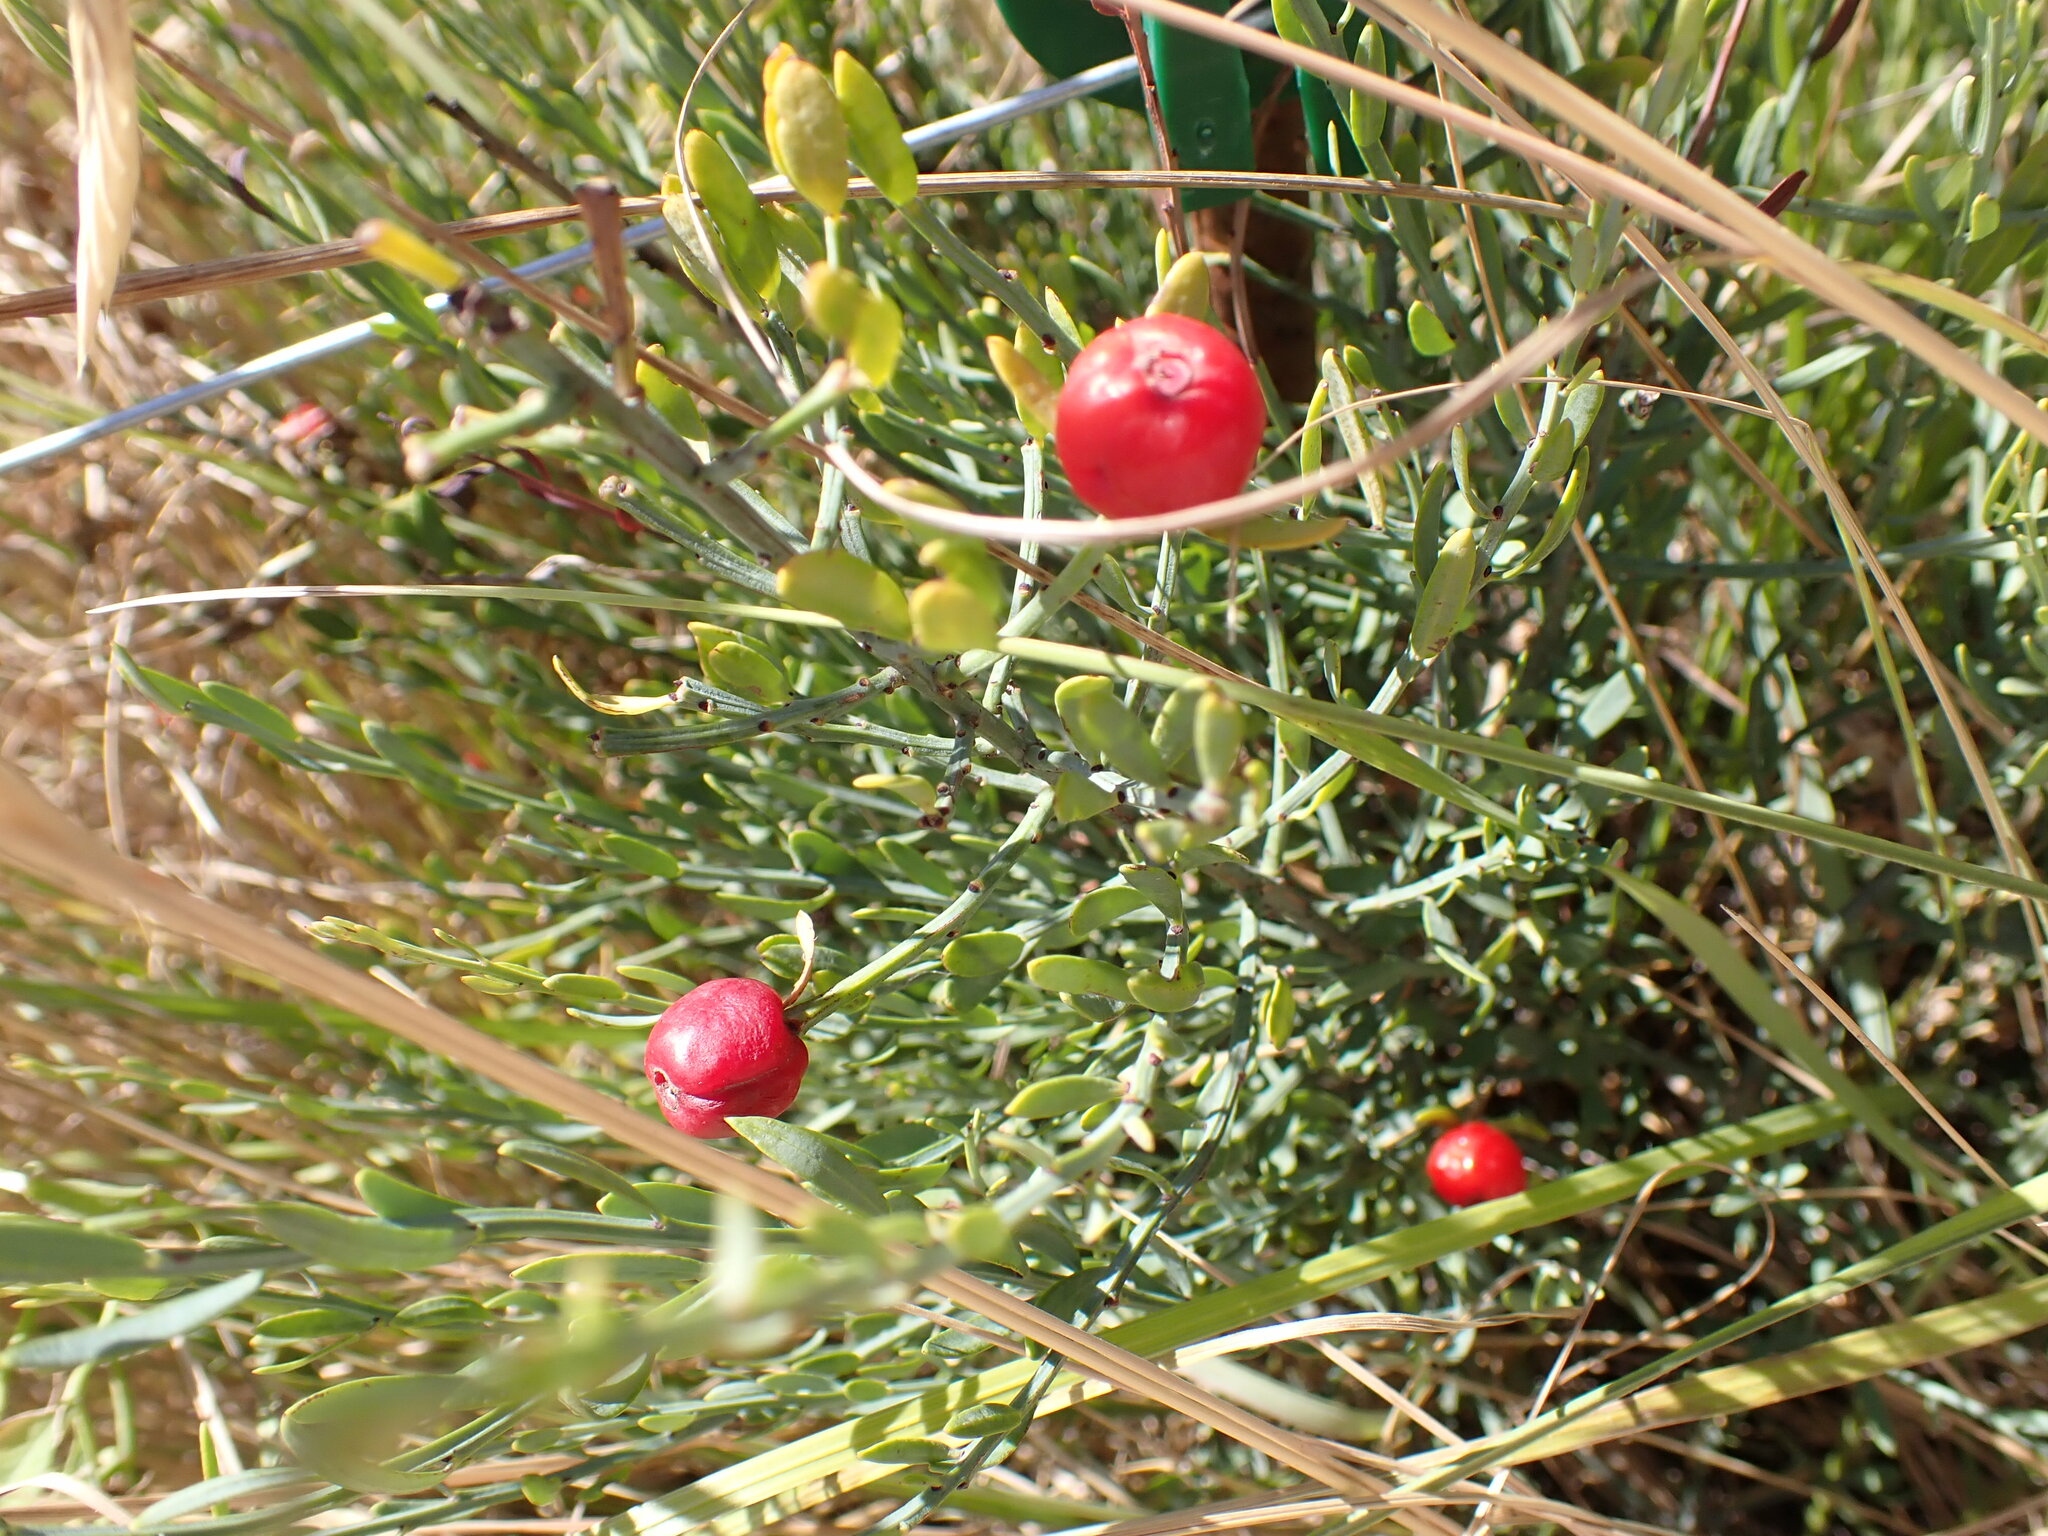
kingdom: Plantae
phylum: Tracheophyta
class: Magnoliopsida
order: Santalales
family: Santalaceae
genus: Osyris
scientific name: Osyris alba
